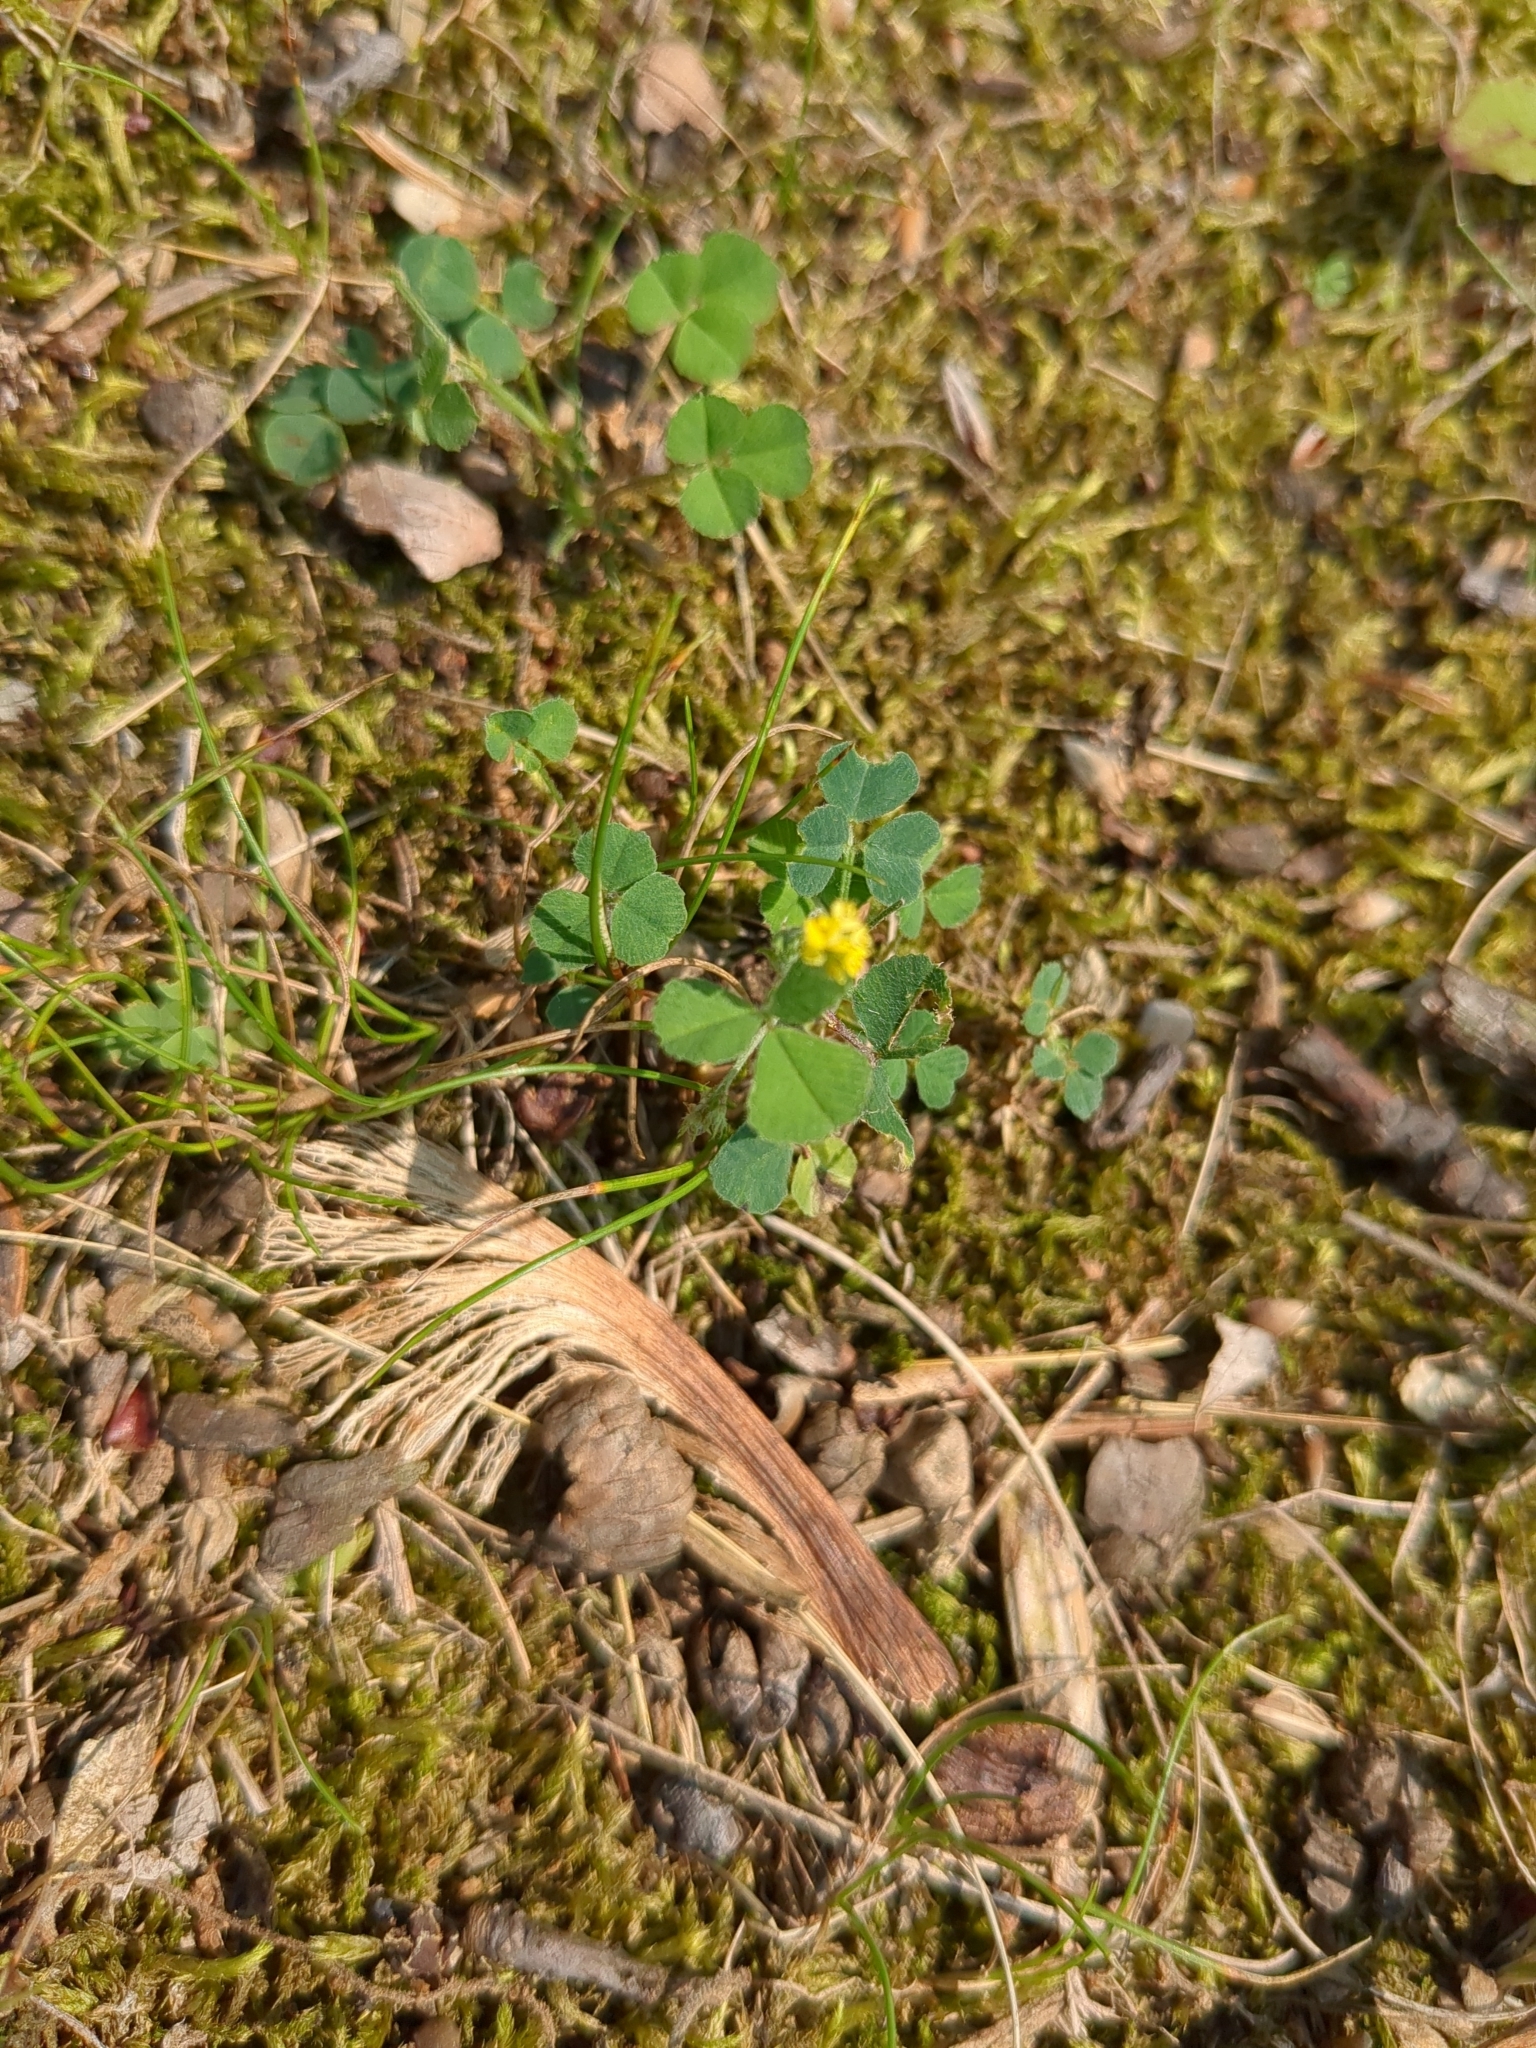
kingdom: Plantae
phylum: Tracheophyta
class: Magnoliopsida
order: Fabales
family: Fabaceae
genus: Medicago
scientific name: Medicago lupulina
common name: Black medick
